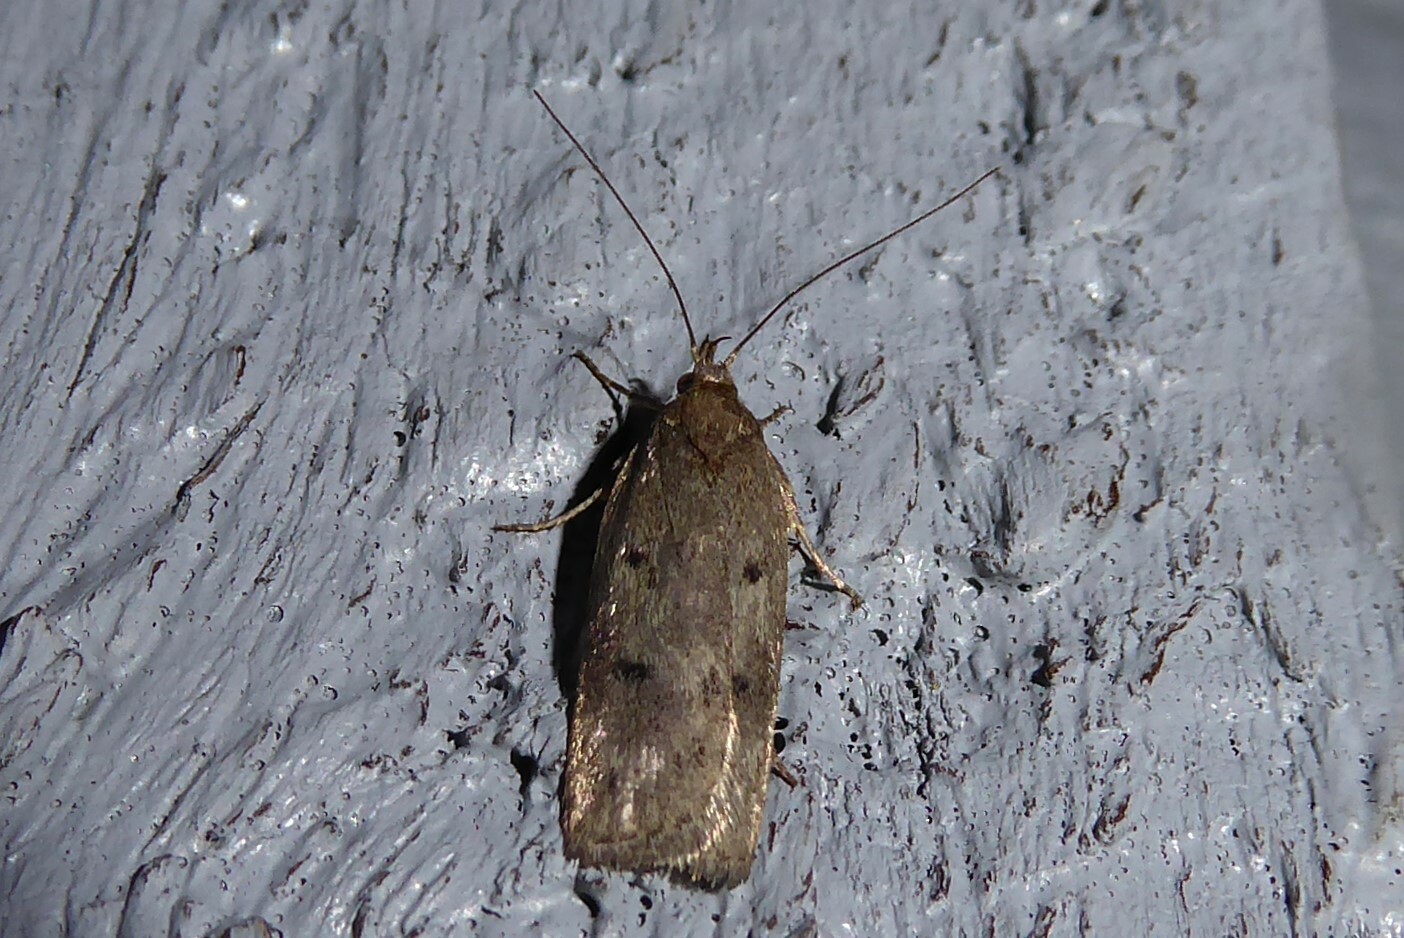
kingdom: Animalia
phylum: Arthropoda
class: Insecta
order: Lepidoptera
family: Depressariidae
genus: Phaeosaces
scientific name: Phaeosaces apocrypta
